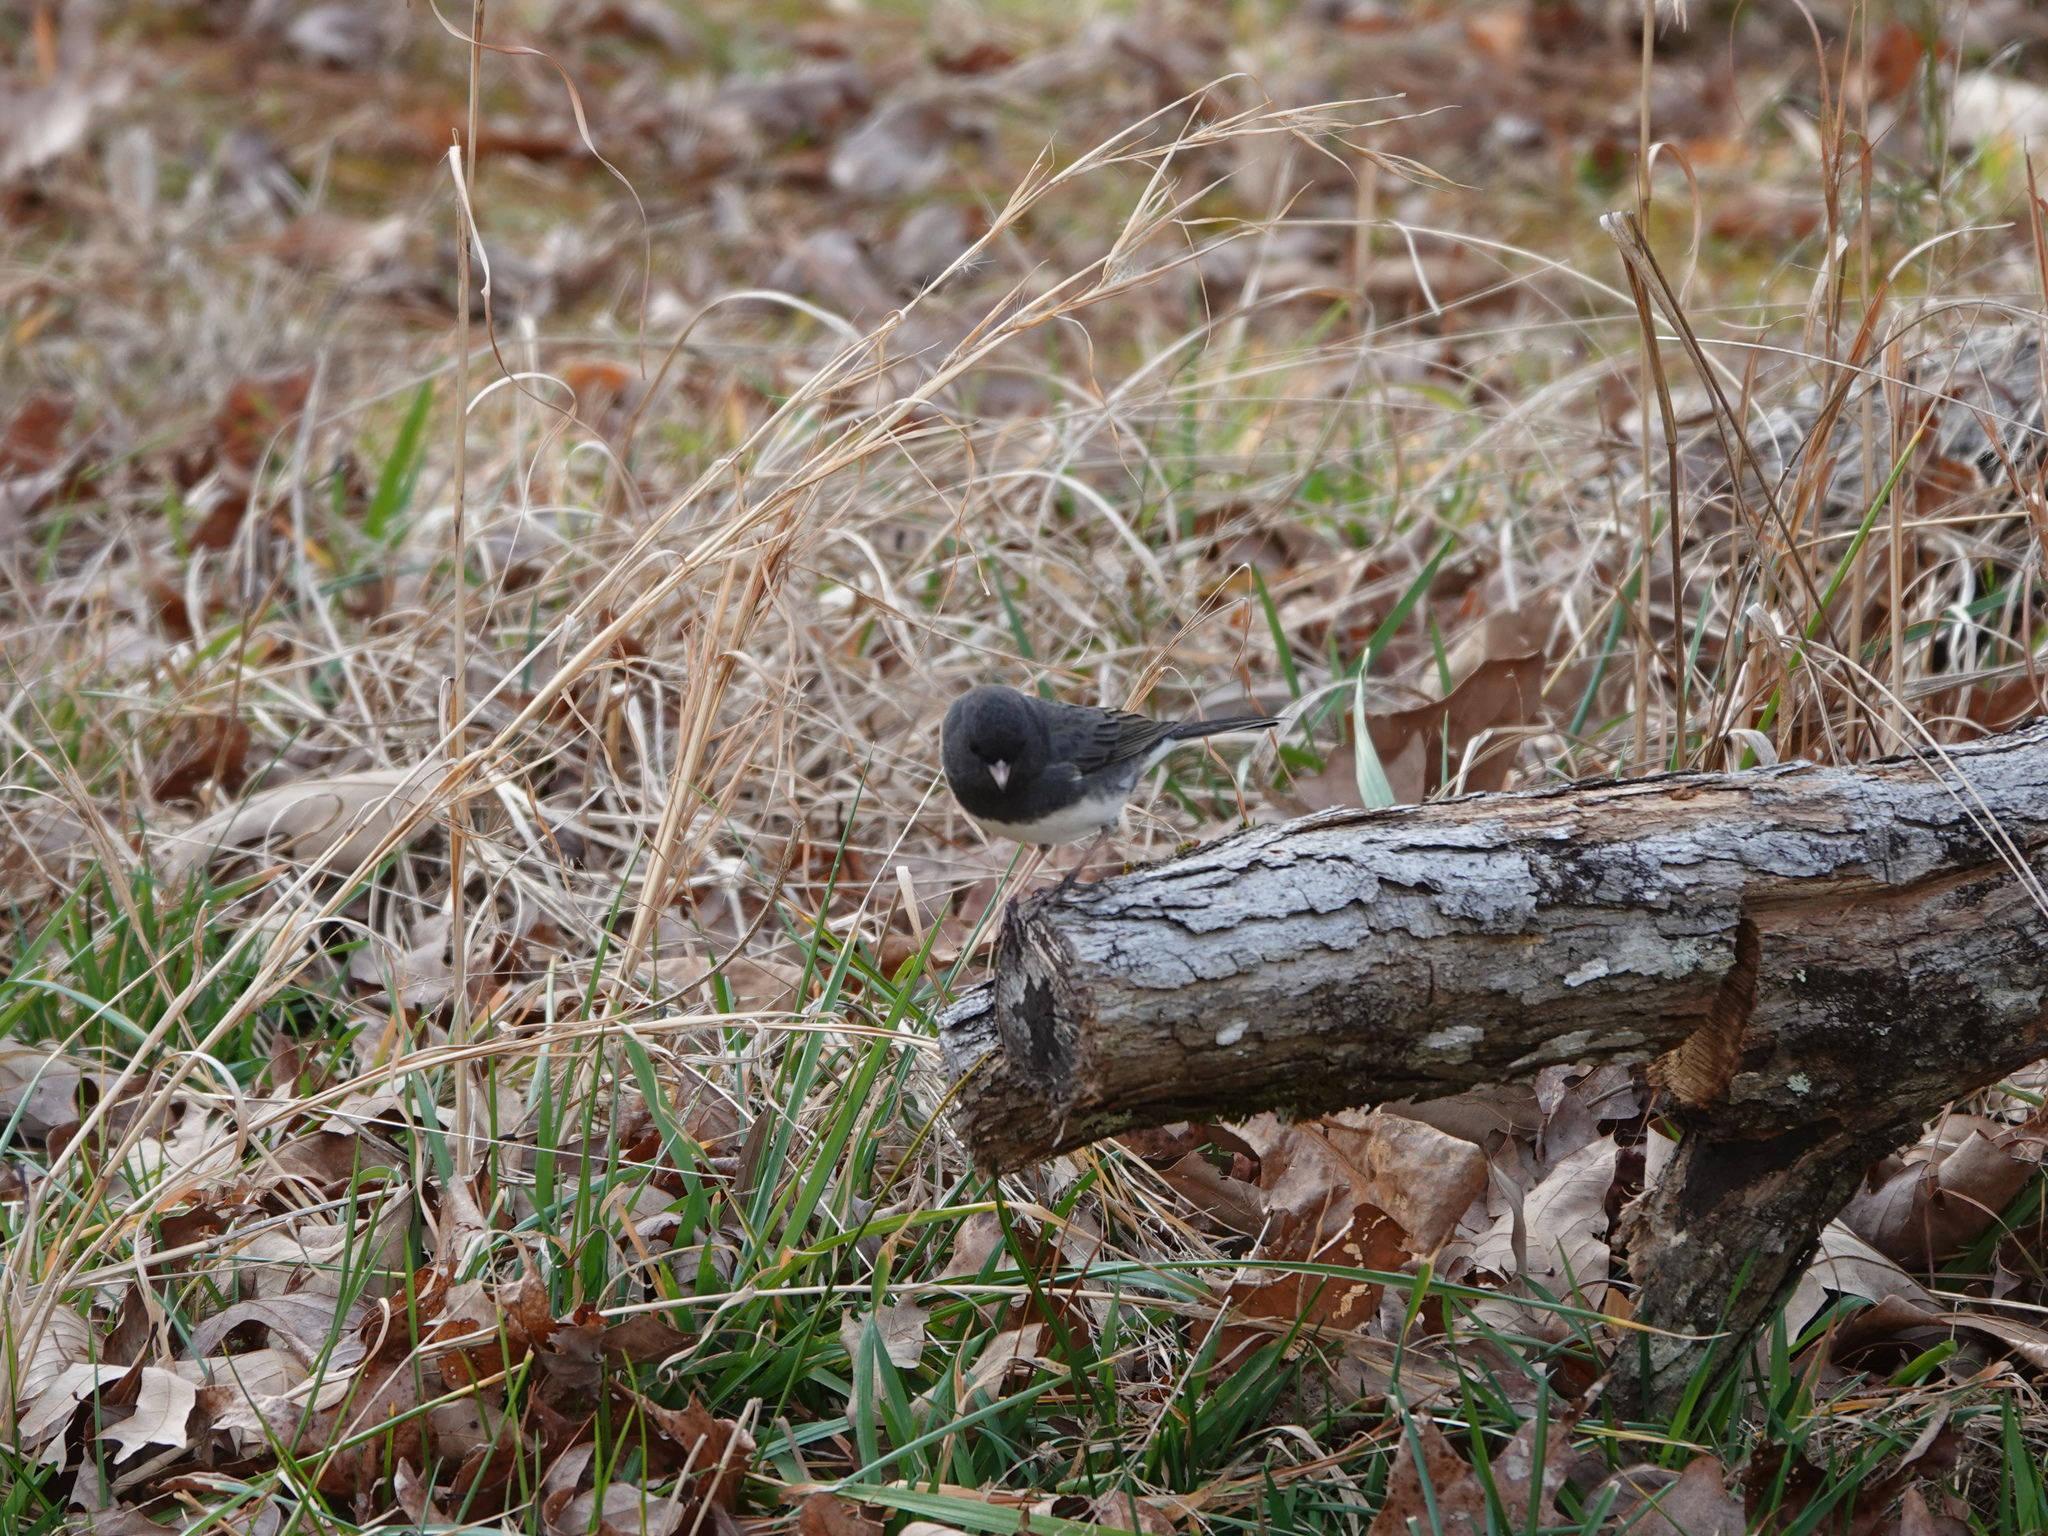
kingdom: Animalia
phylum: Chordata
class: Aves
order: Passeriformes
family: Passerellidae
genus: Junco
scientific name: Junco hyemalis
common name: Dark-eyed junco
